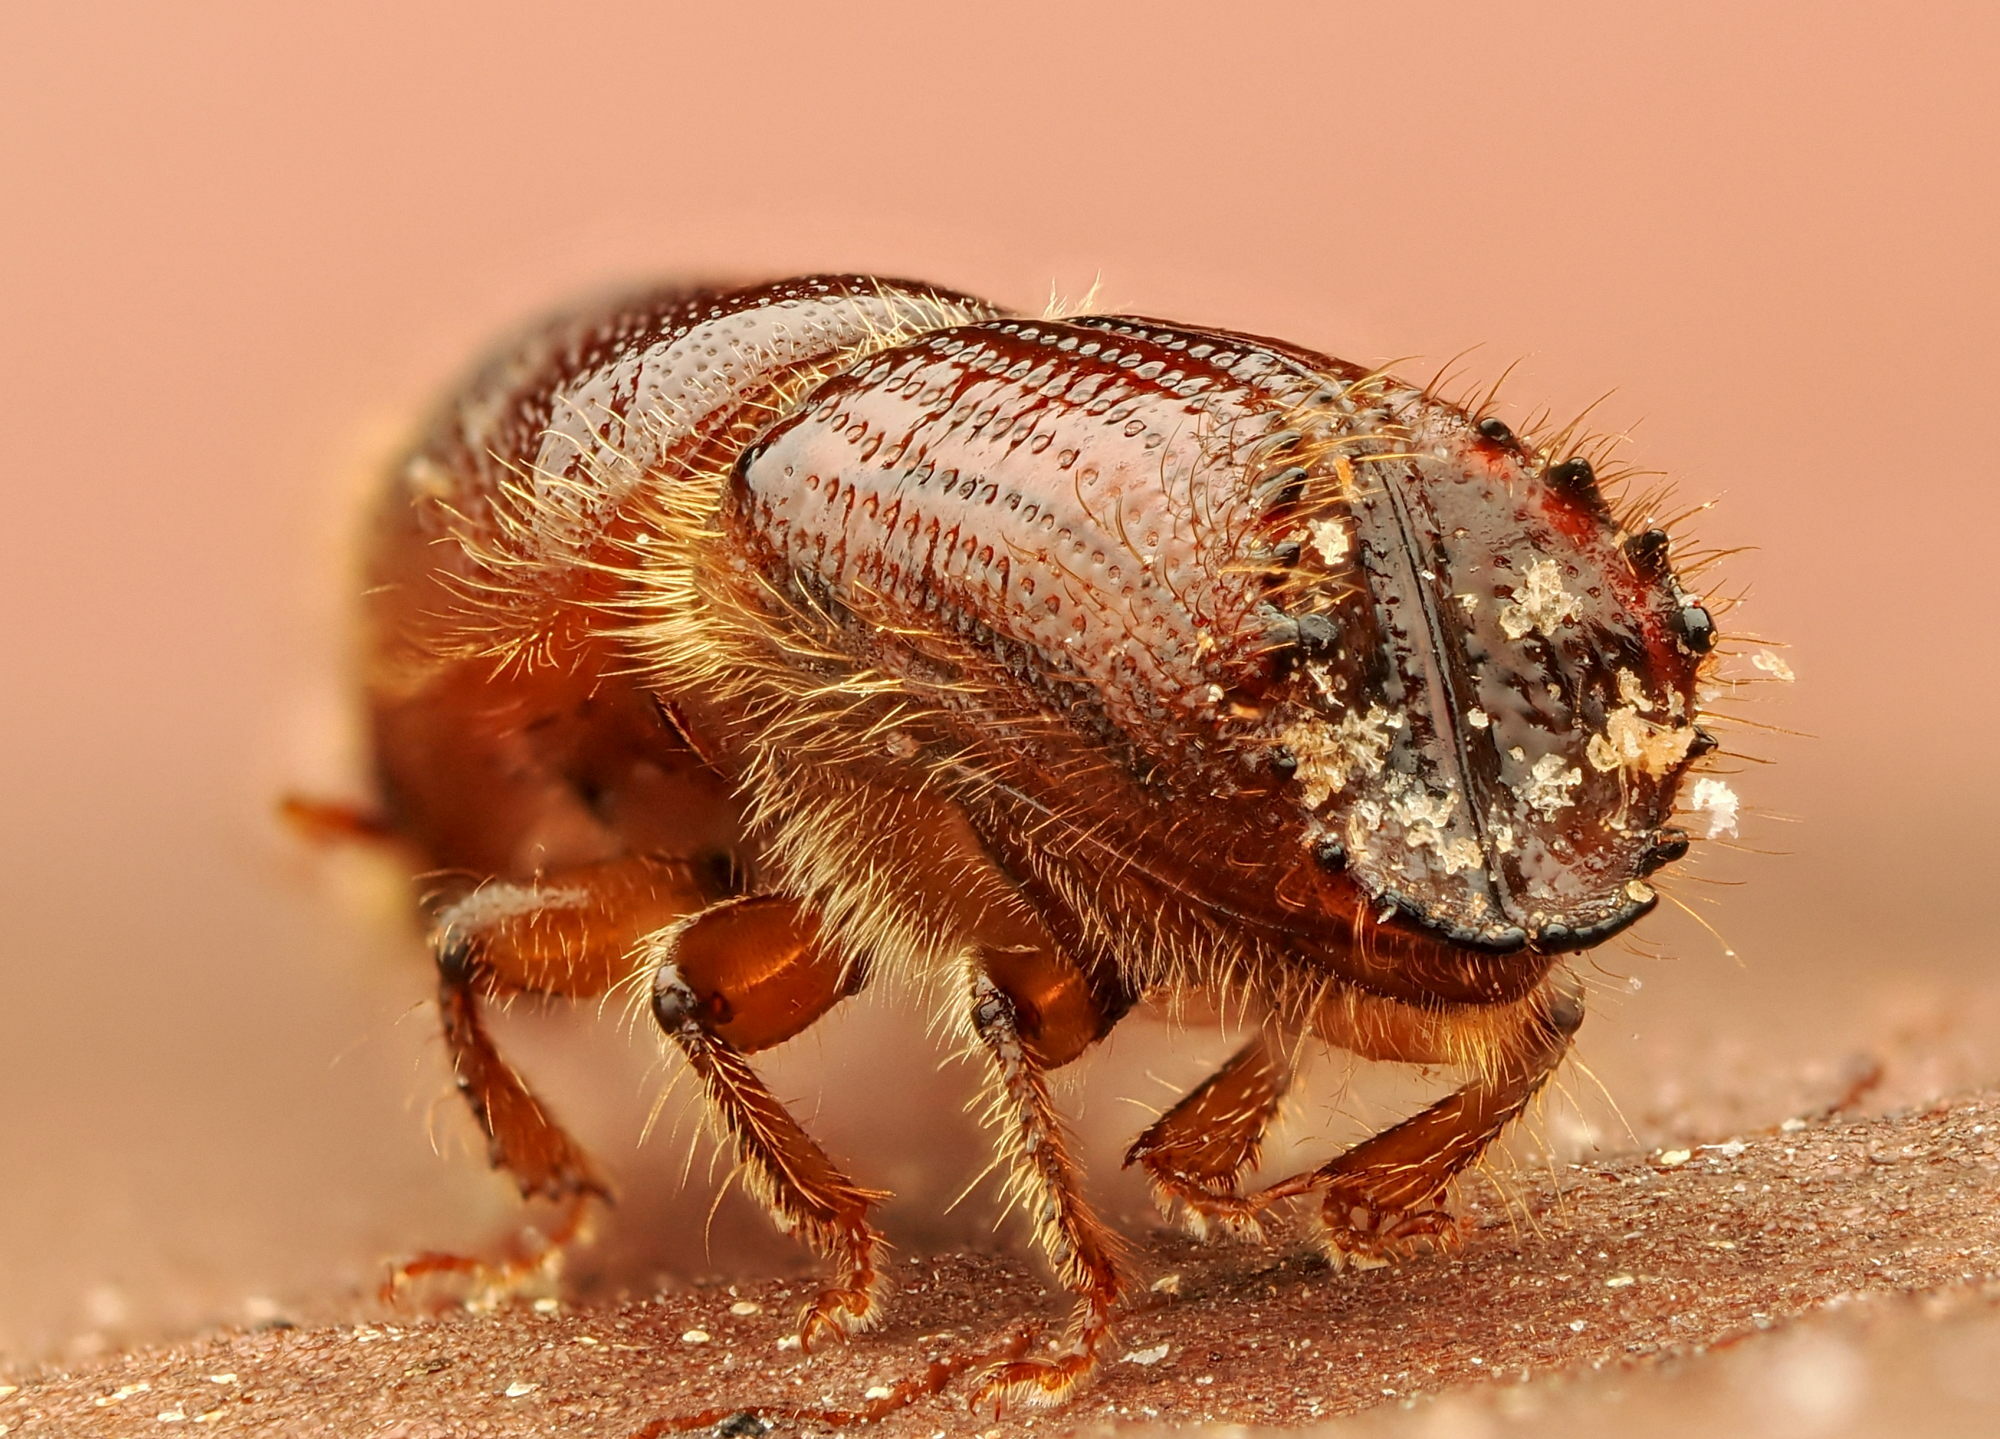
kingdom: Animalia
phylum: Arthropoda
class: Insecta
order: Coleoptera
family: Curculionidae
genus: Ips
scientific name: Ips sexdentatus
